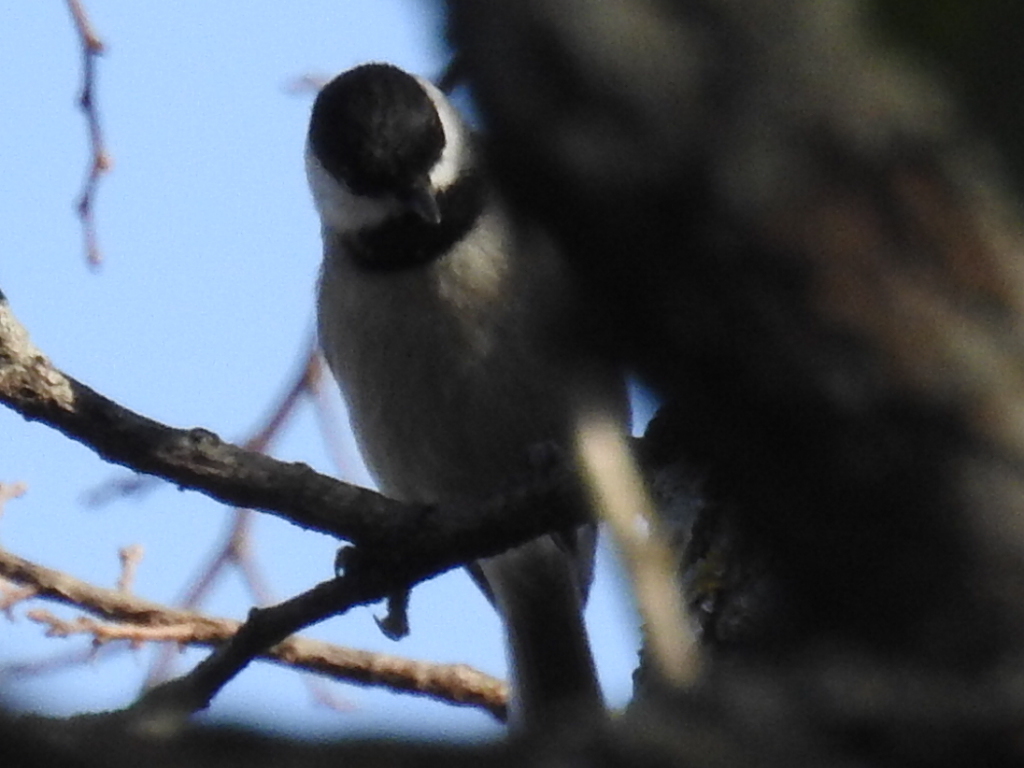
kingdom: Animalia
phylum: Chordata
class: Aves
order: Passeriformes
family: Paridae
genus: Poecile
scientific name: Poecile carolinensis
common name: Carolina chickadee
